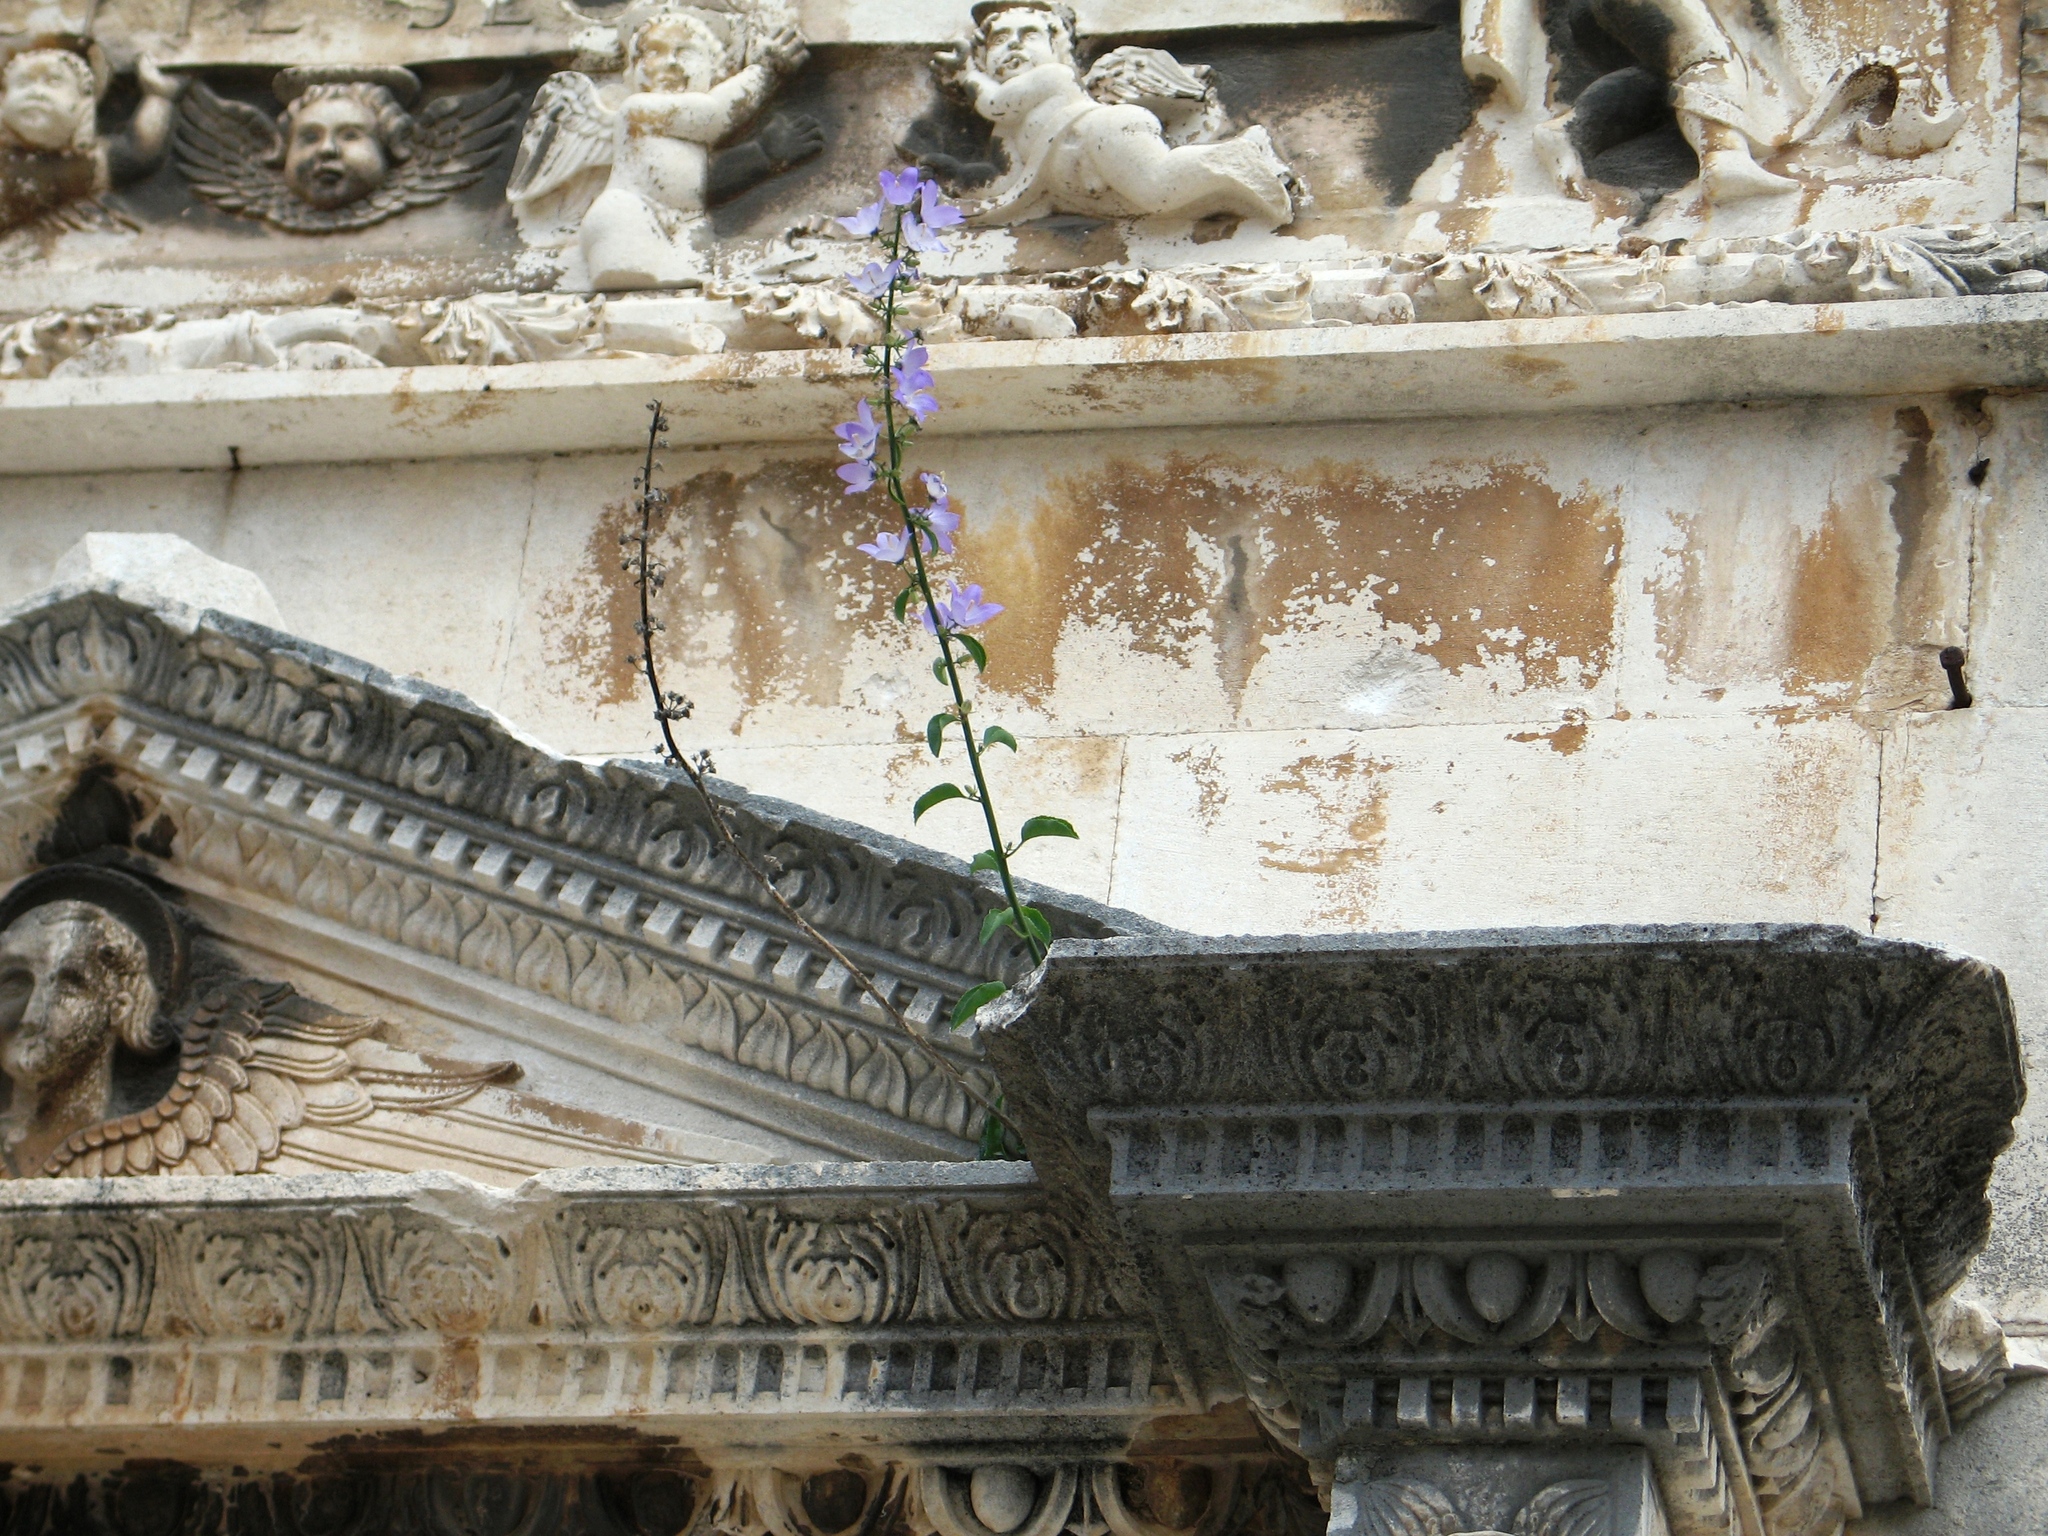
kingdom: Plantae
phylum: Tracheophyta
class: Magnoliopsida
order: Asterales
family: Campanulaceae
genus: Campanula
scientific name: Campanula austroadriatica
